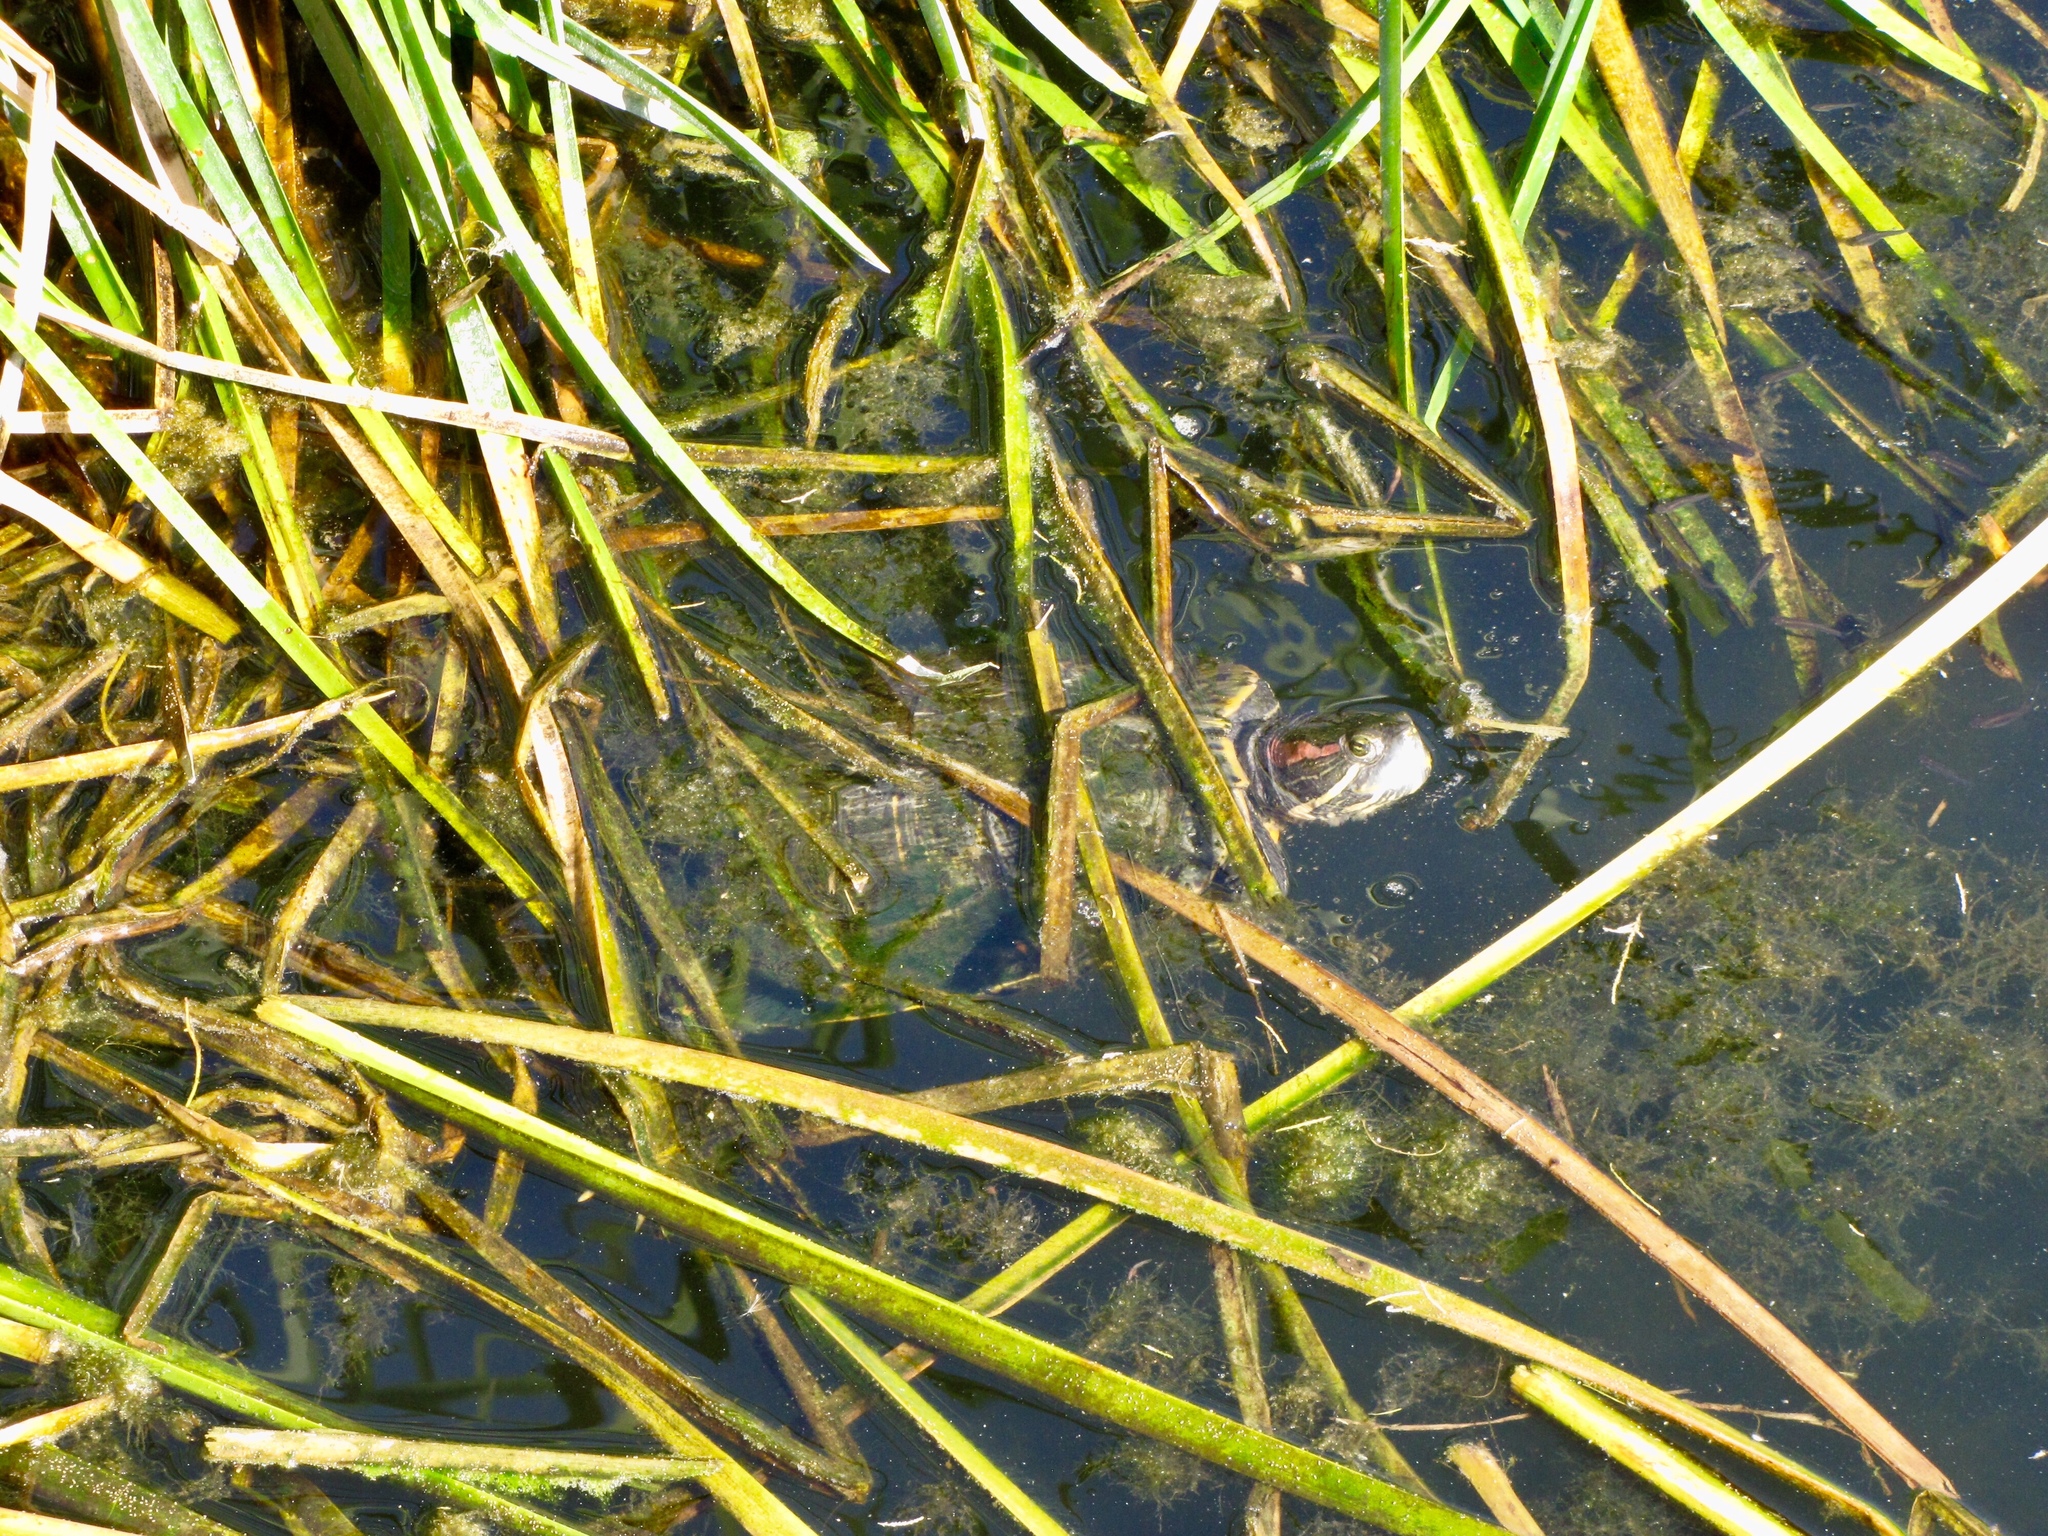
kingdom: Animalia
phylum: Chordata
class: Testudines
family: Emydidae
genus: Trachemys
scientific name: Trachemys scripta
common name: Slider
